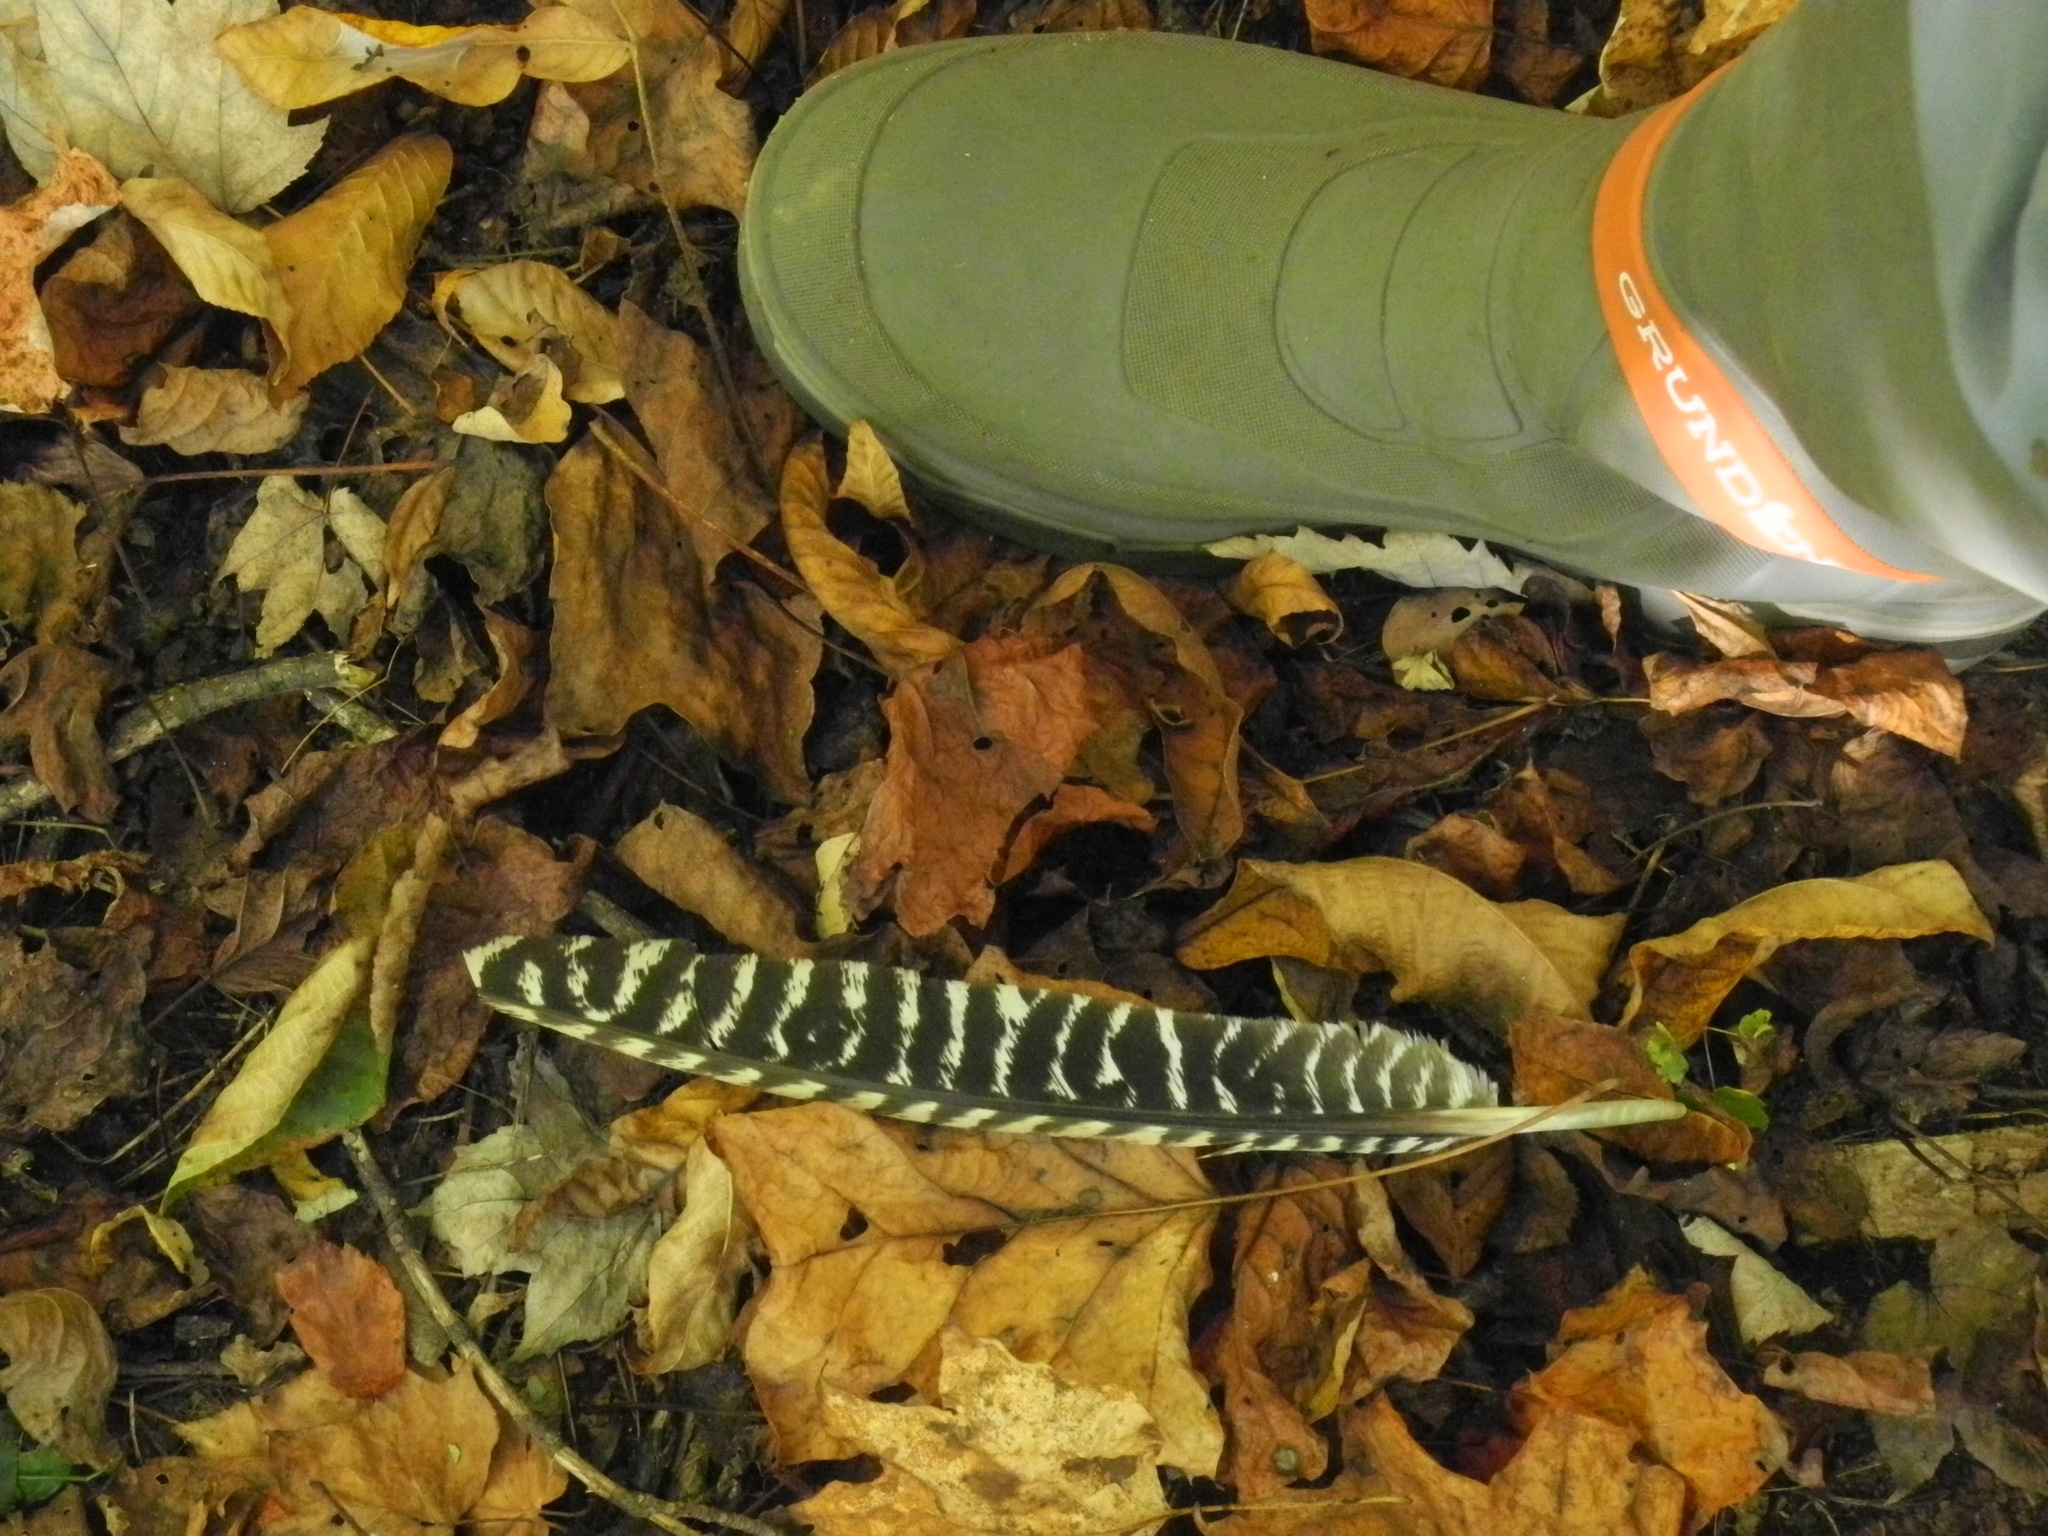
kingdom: Animalia
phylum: Chordata
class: Aves
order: Galliformes
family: Phasianidae
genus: Meleagris
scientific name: Meleagris gallopavo
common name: Wild turkey
